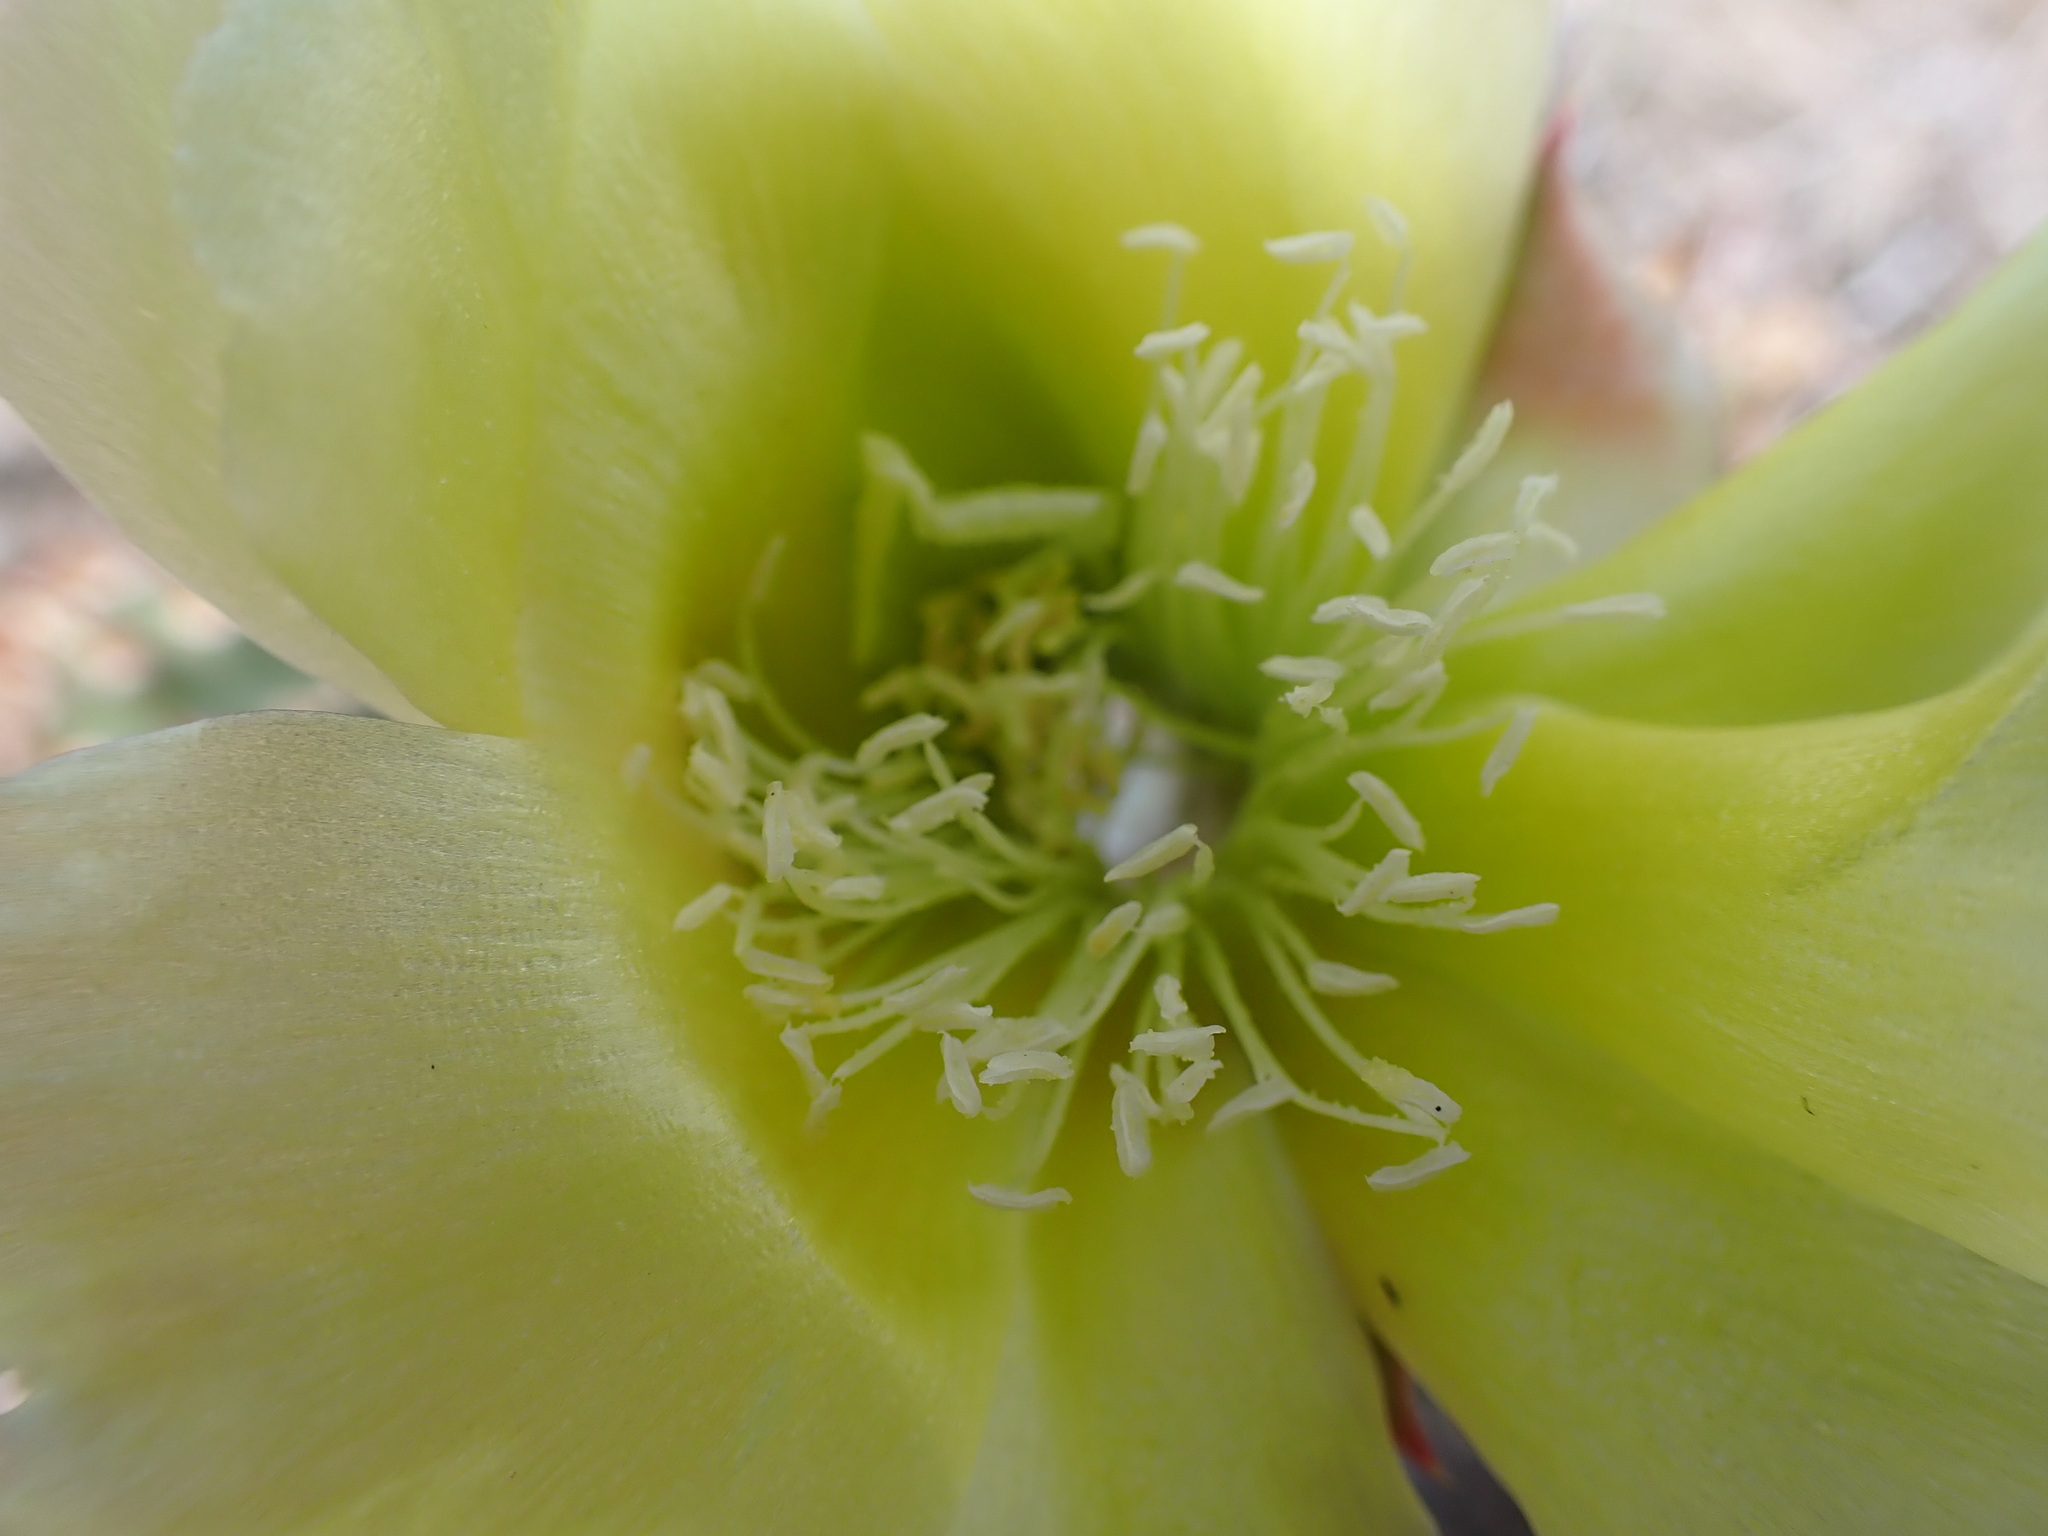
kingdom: Plantae
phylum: Tracheophyta
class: Magnoliopsida
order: Caryophyllales
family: Cactaceae
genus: Opuntia
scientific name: Opuntia fragilis
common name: Brittle cactus
